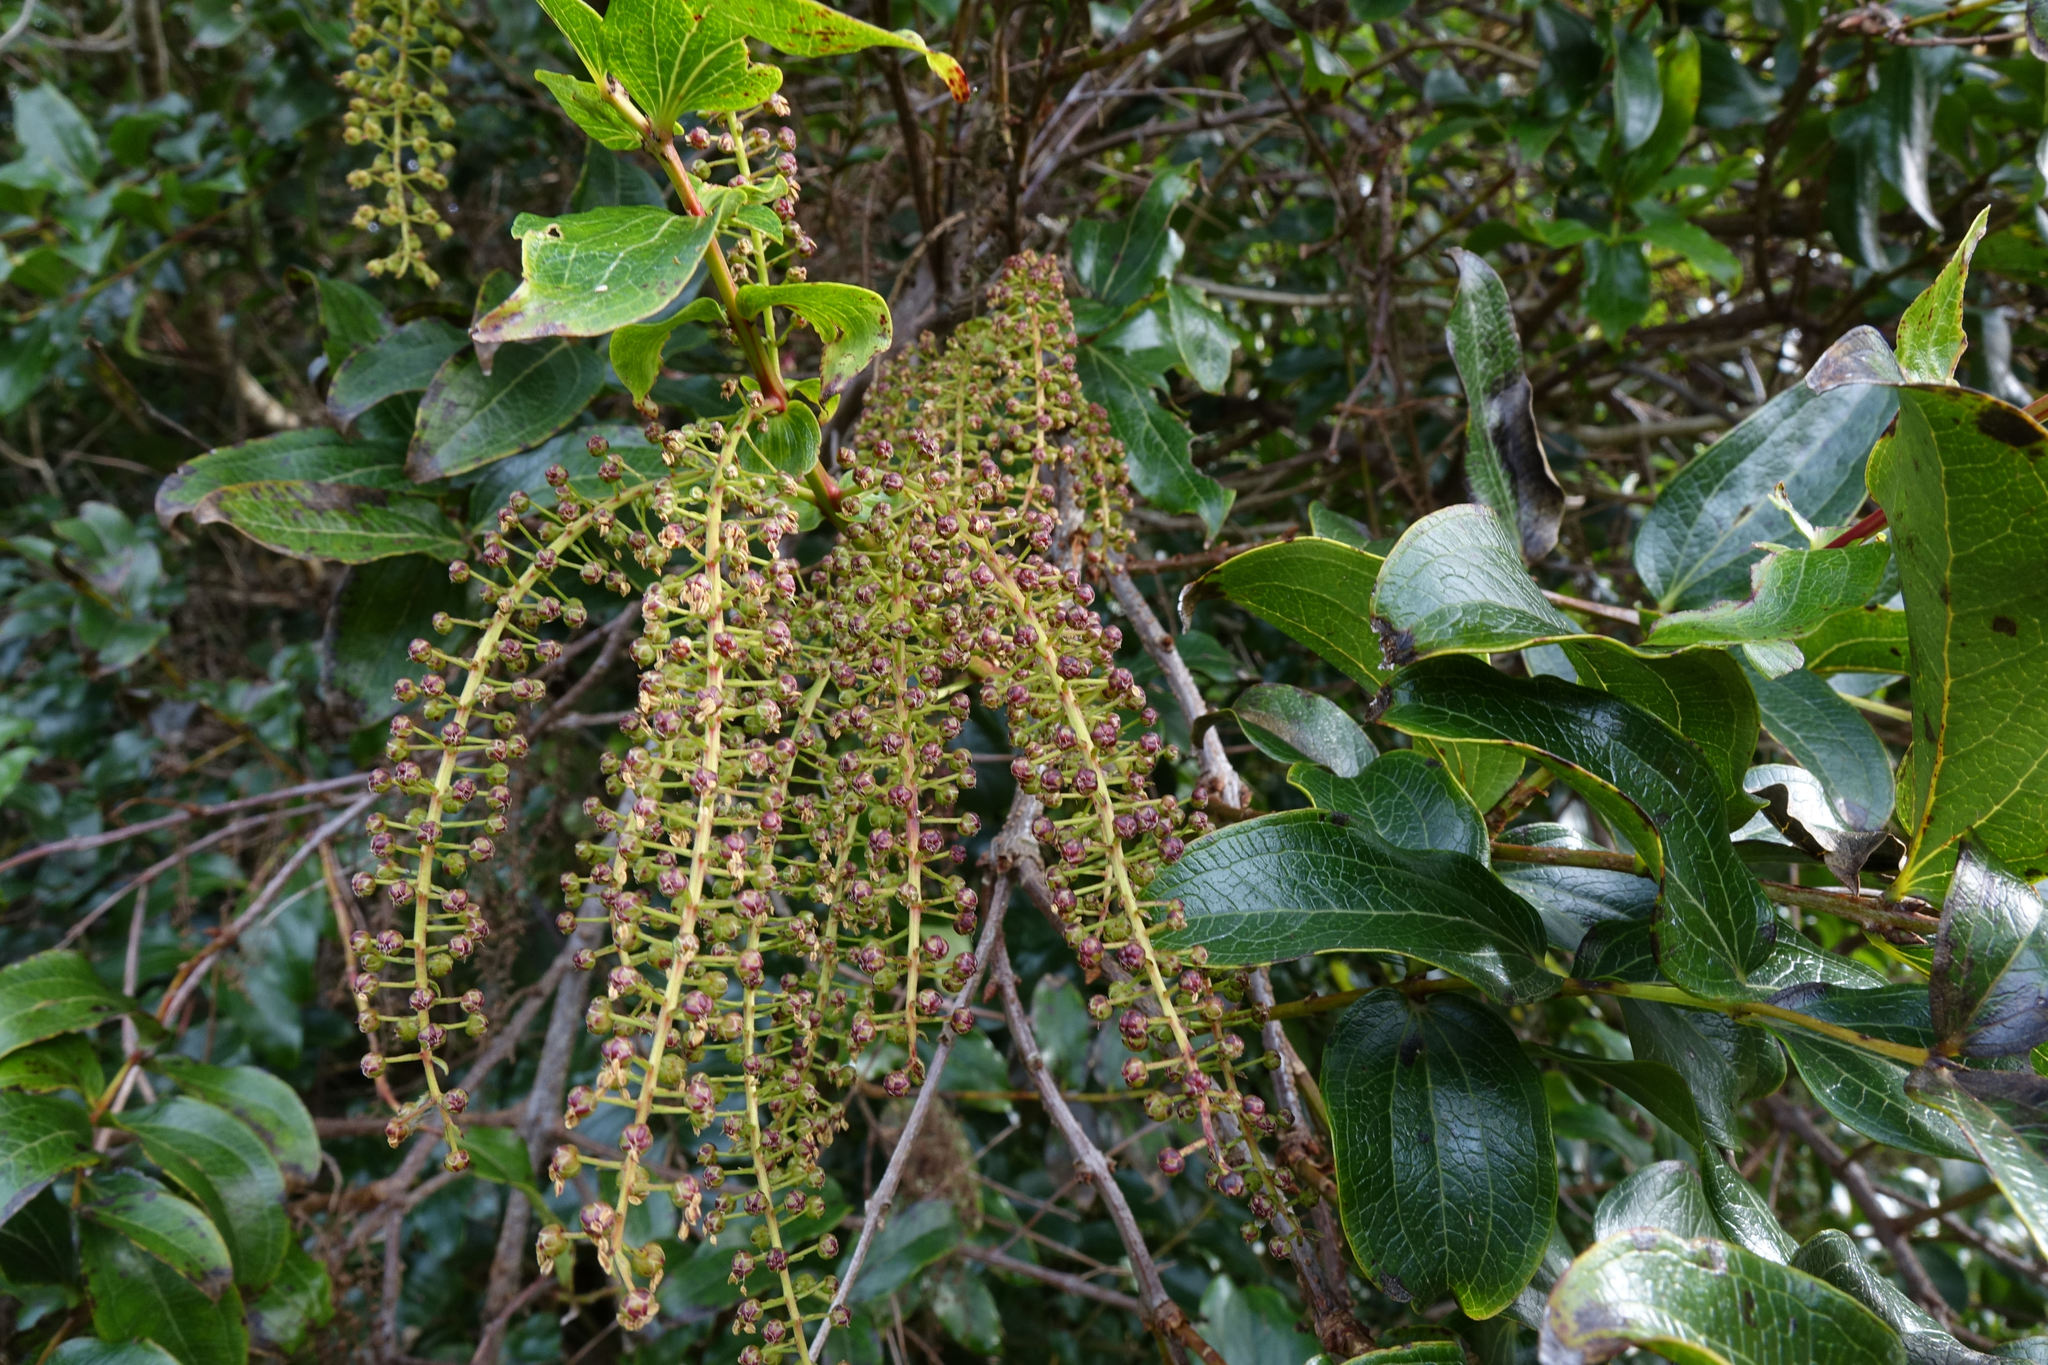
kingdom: Plantae
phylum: Tracheophyta
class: Magnoliopsida
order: Cucurbitales
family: Coriariaceae
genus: Coriaria
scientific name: Coriaria arborea
